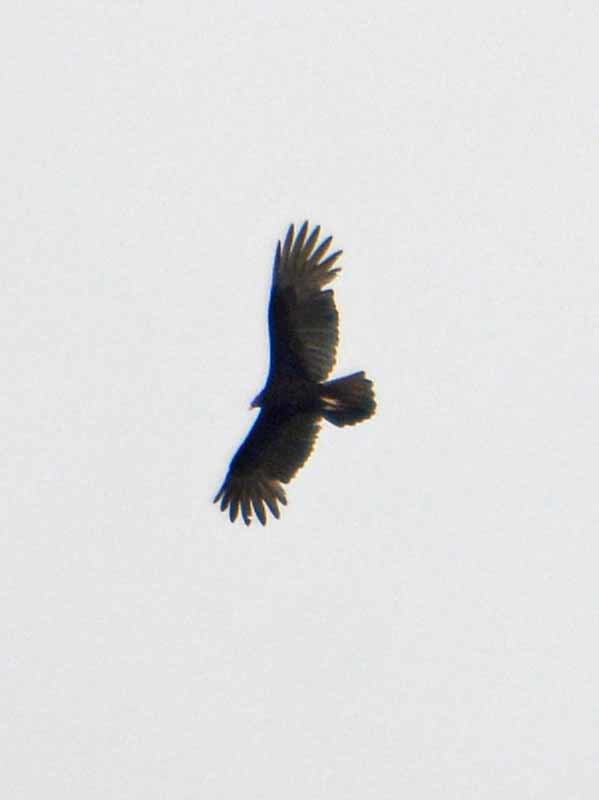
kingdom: Animalia
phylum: Chordata
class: Aves
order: Accipitriformes
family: Cathartidae
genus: Cathartes
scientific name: Cathartes aura
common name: Turkey vulture
